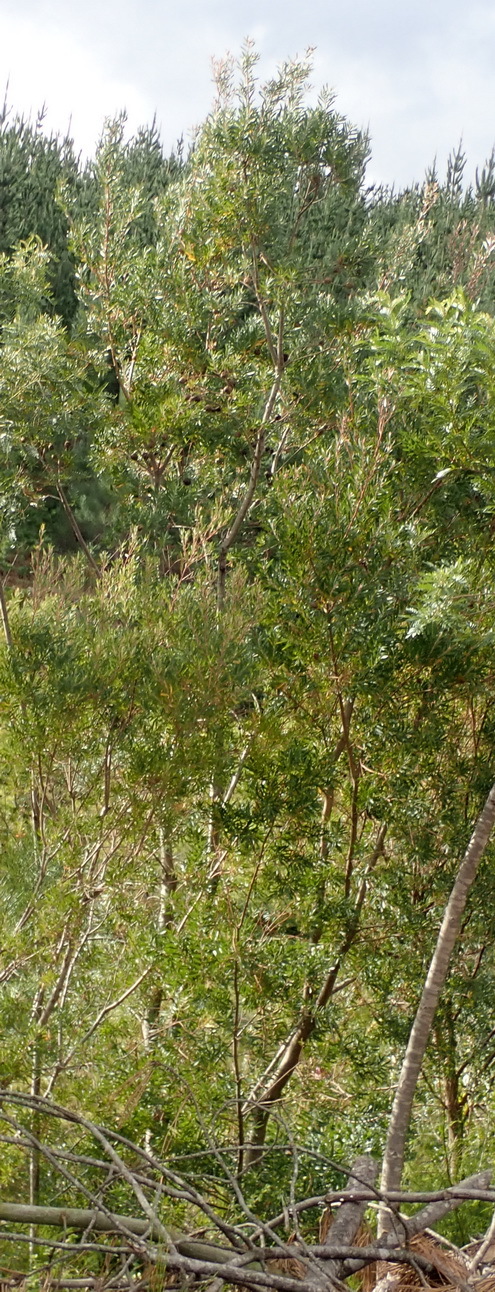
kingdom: Plantae
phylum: Tracheophyta
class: Magnoliopsida
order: Proteales
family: Proteaceae
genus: Leucadendron
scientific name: Leucadendron conicum
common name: Garden route conebush
